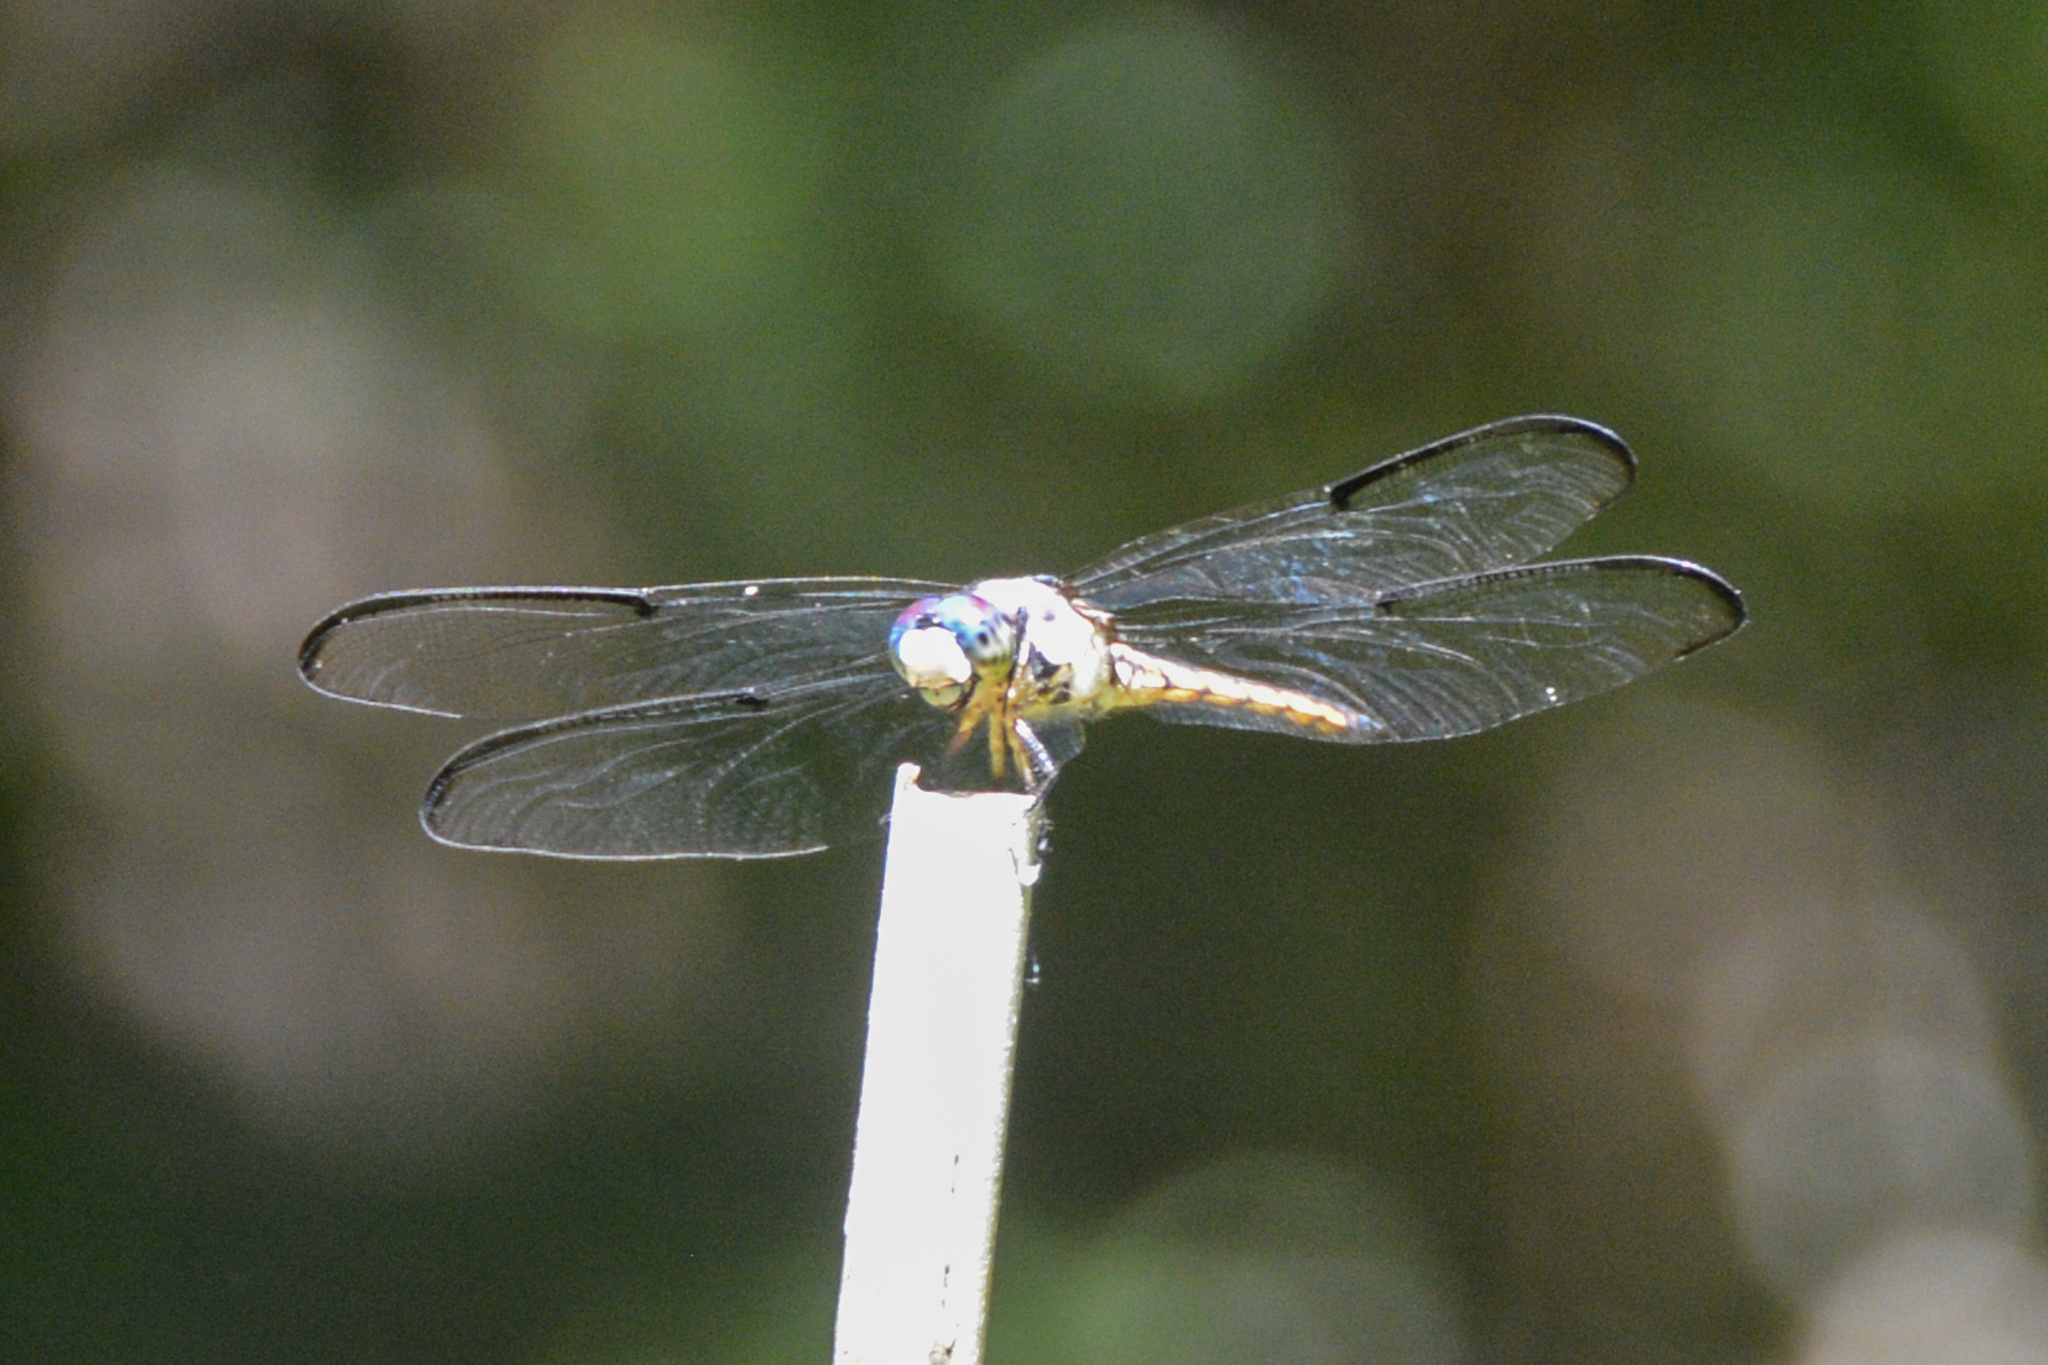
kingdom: Animalia
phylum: Arthropoda
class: Insecta
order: Odonata
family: Libellulidae
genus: Libellula
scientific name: Libellula vibrans
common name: Great blue skimmer
